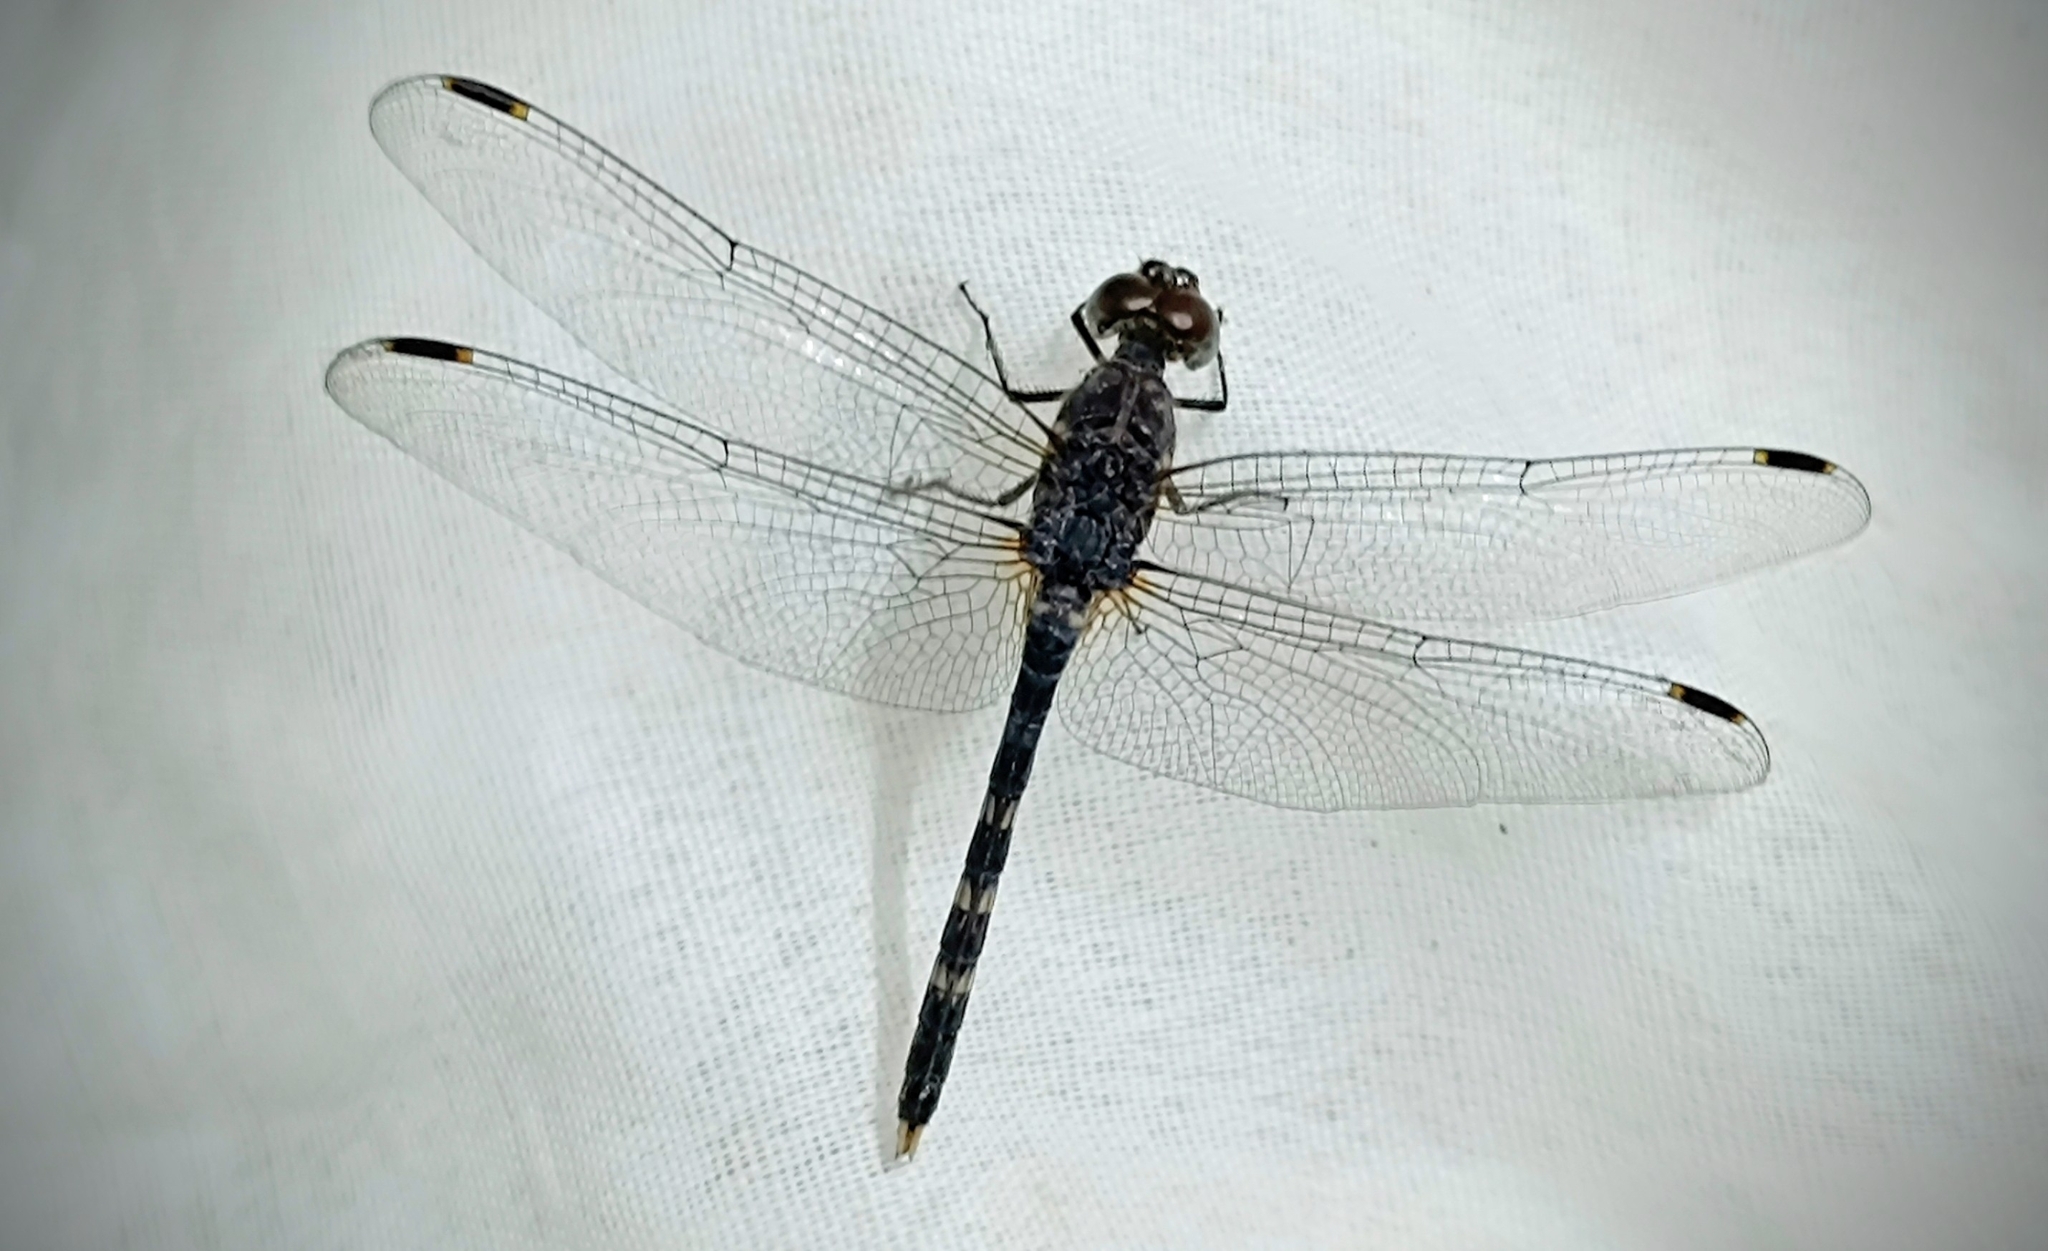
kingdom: Animalia
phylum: Arthropoda
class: Insecta
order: Odonata
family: Libellulidae
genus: Bradinopyga
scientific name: Bradinopyga geminata
